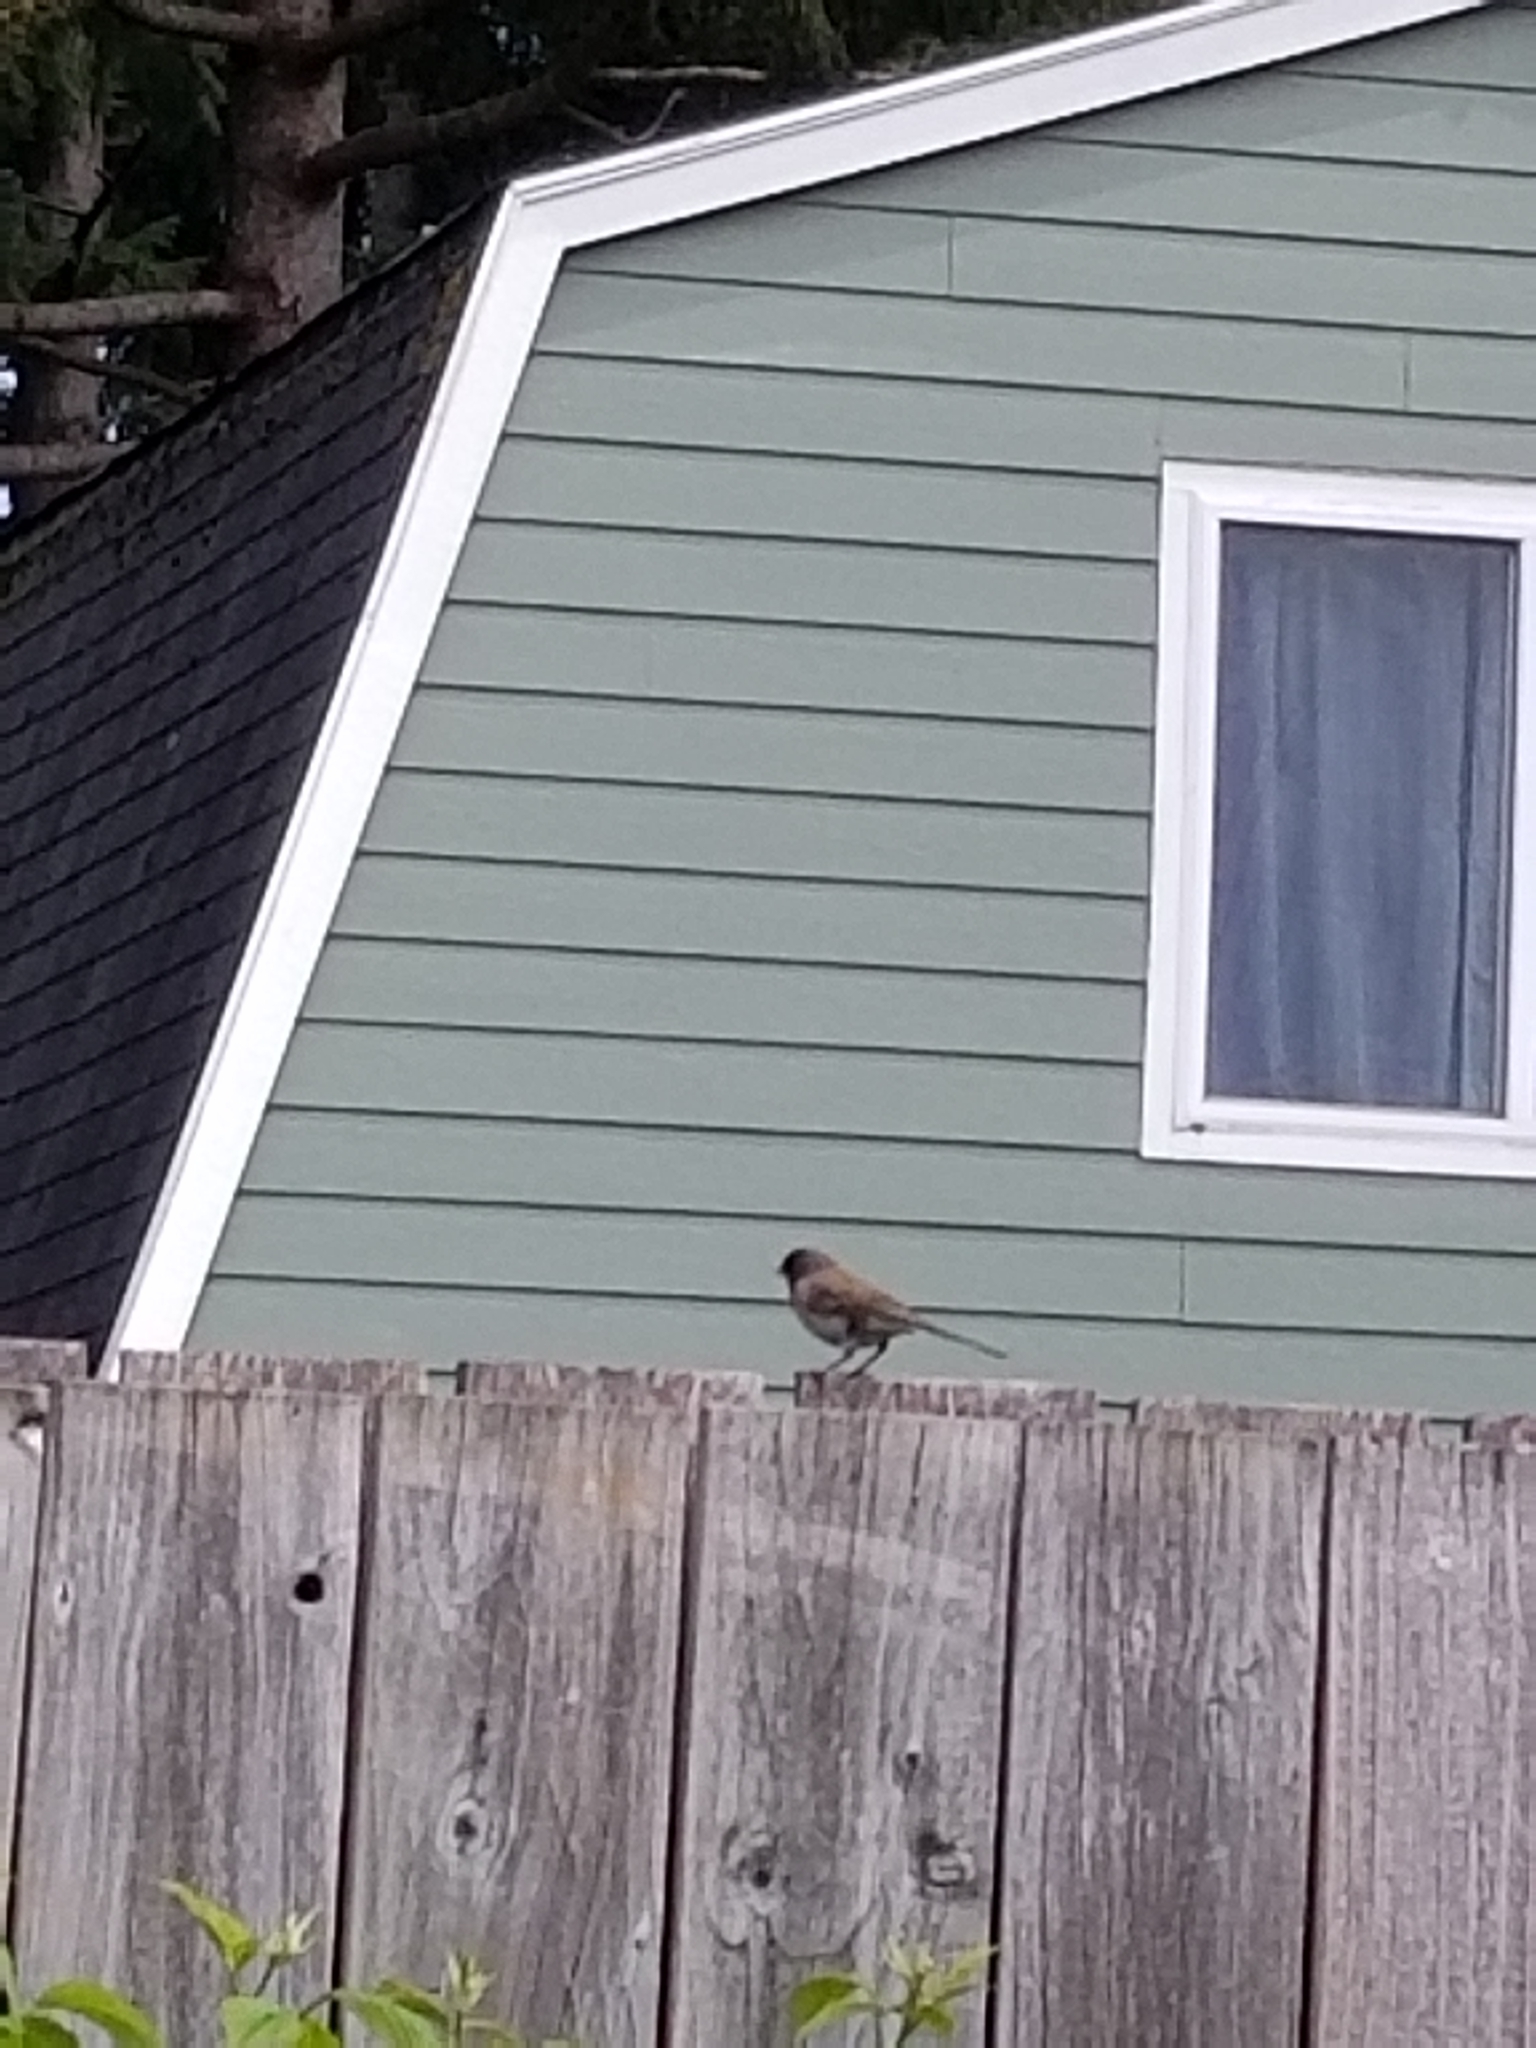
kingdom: Animalia
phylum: Chordata
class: Aves
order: Passeriformes
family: Passerellidae
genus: Junco
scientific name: Junco hyemalis
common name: Dark-eyed junco
